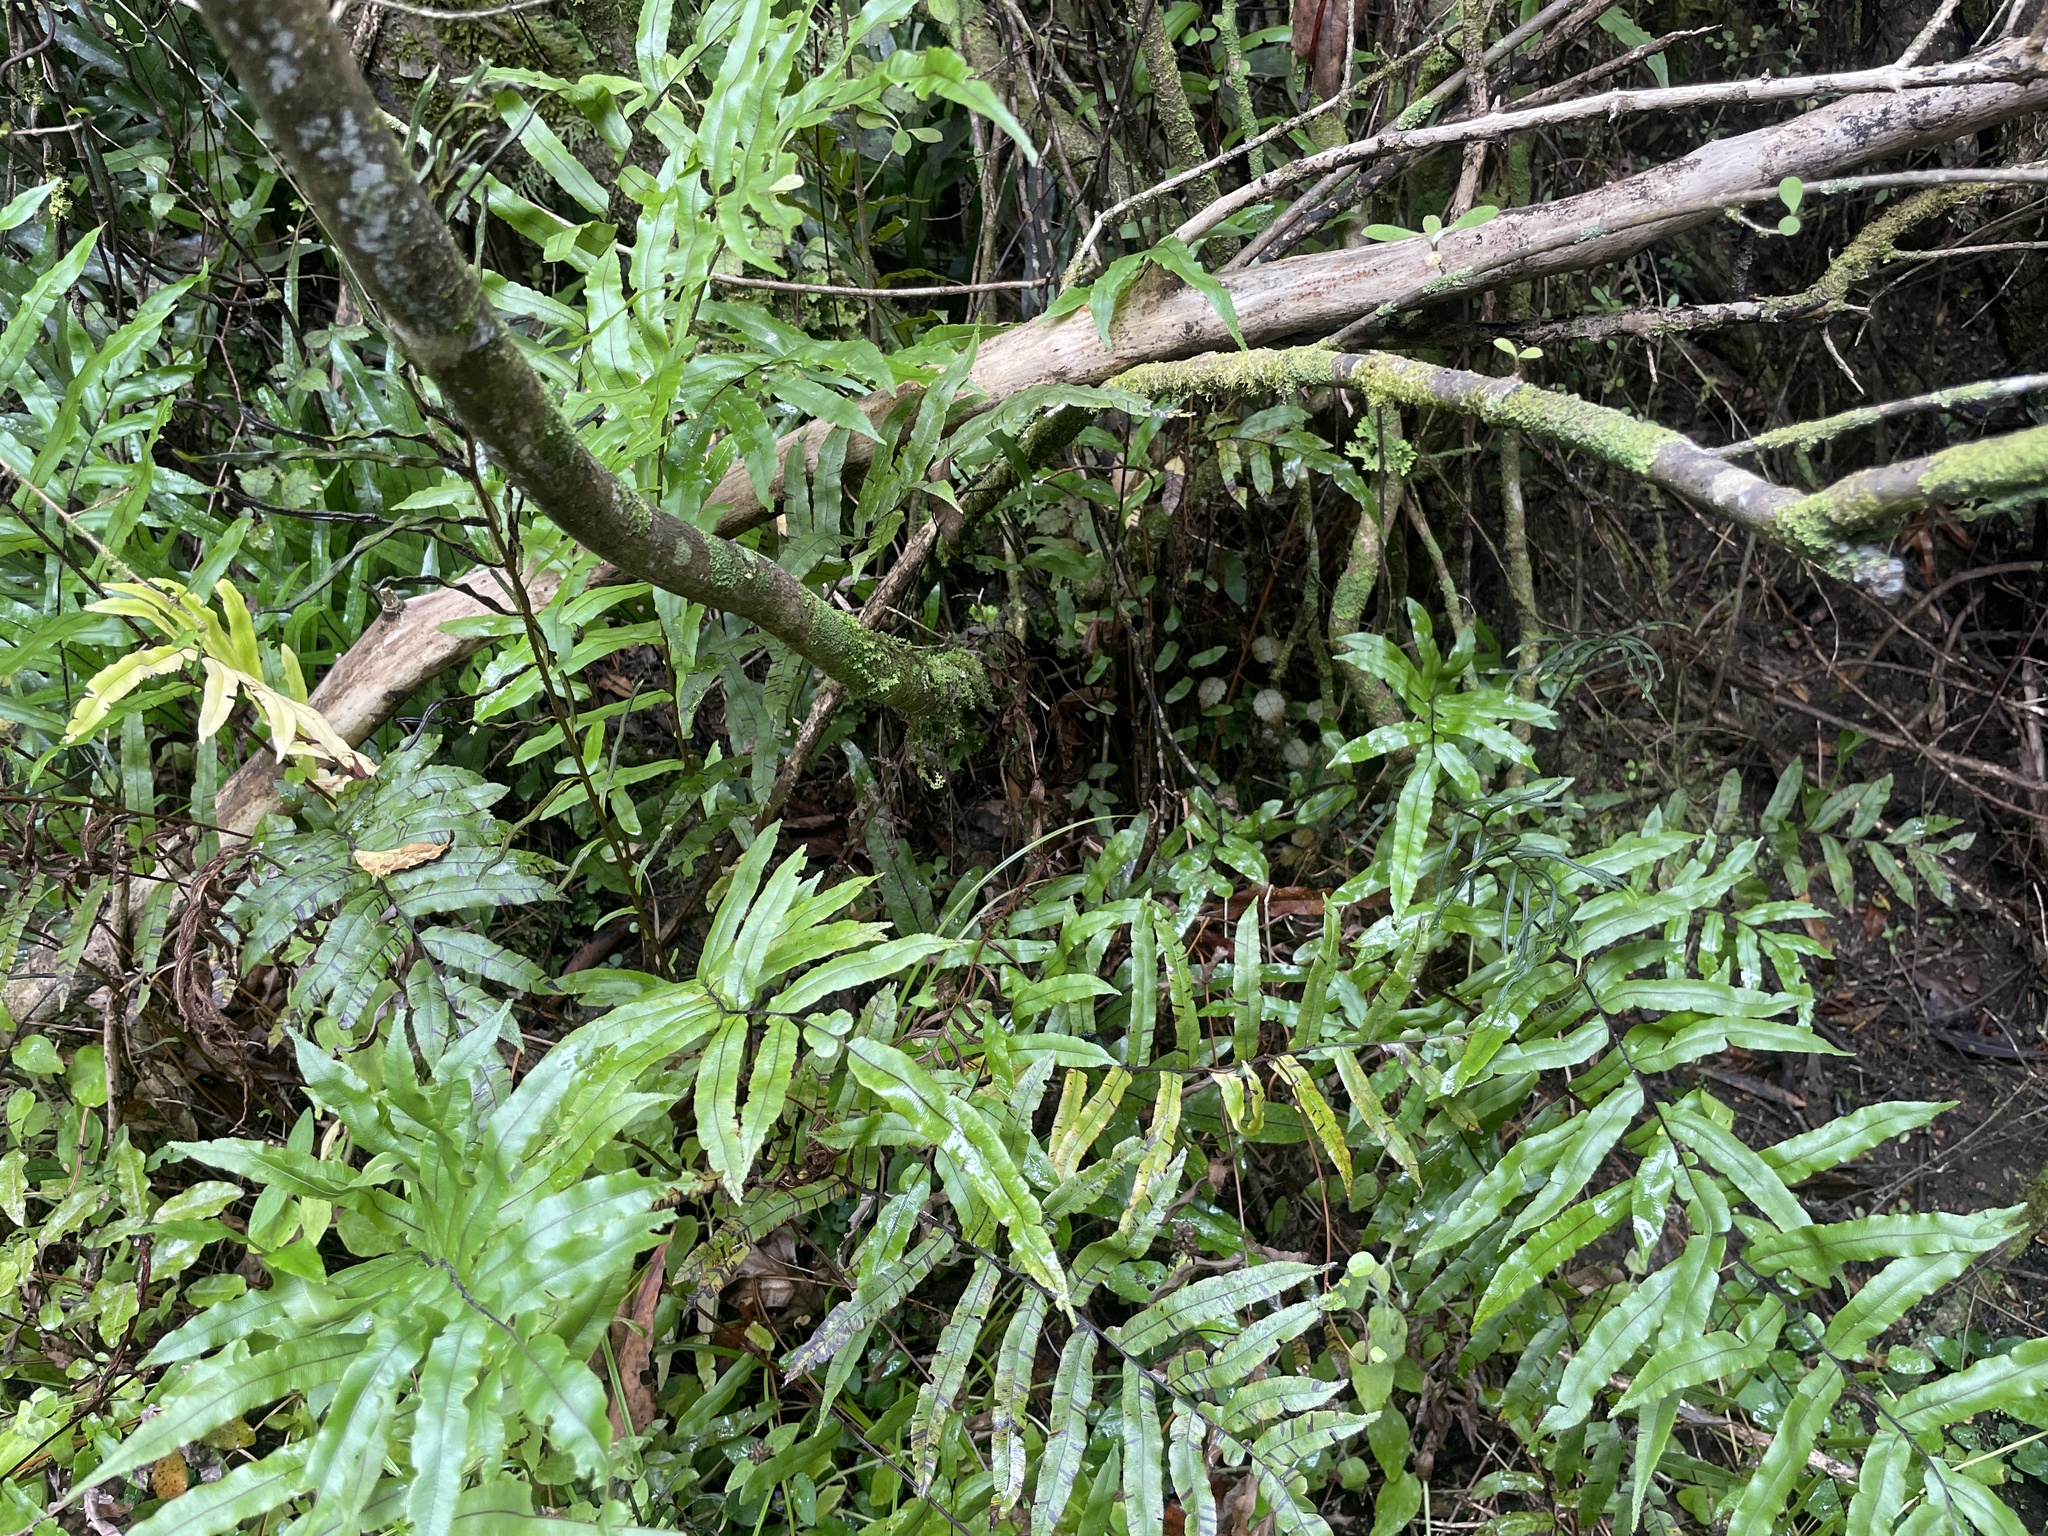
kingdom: Plantae
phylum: Tracheophyta
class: Polypodiopsida
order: Polypodiales
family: Blechnaceae
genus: Parablechnum
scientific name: Parablechnum minus
